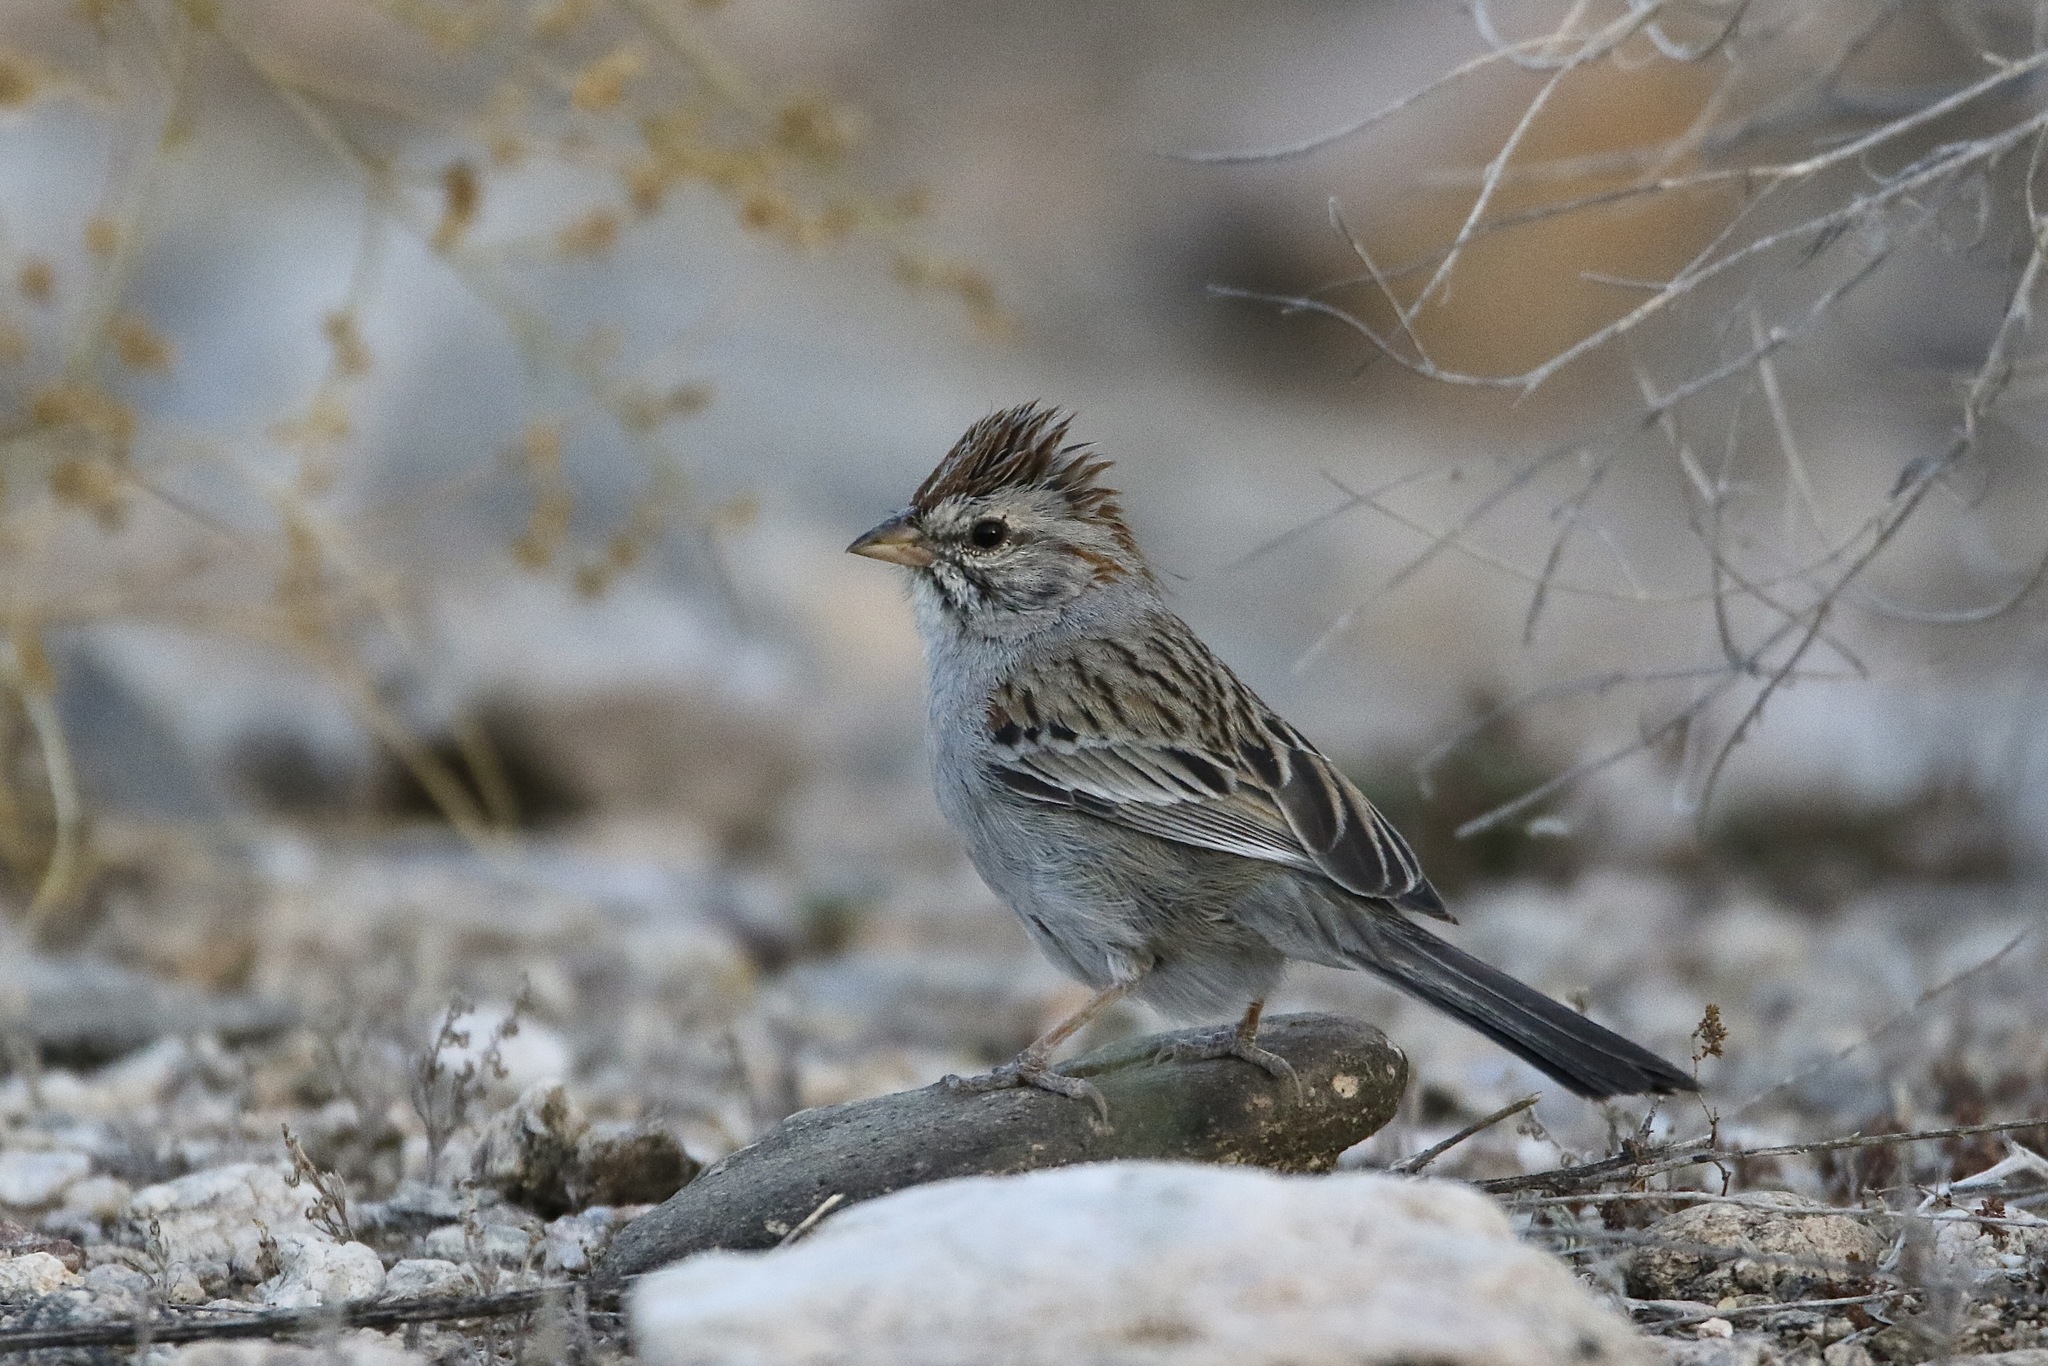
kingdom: Animalia
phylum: Chordata
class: Aves
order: Passeriformes
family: Passerellidae
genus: Peucaea
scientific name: Peucaea carpalis
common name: Rufous-winged sparrow
